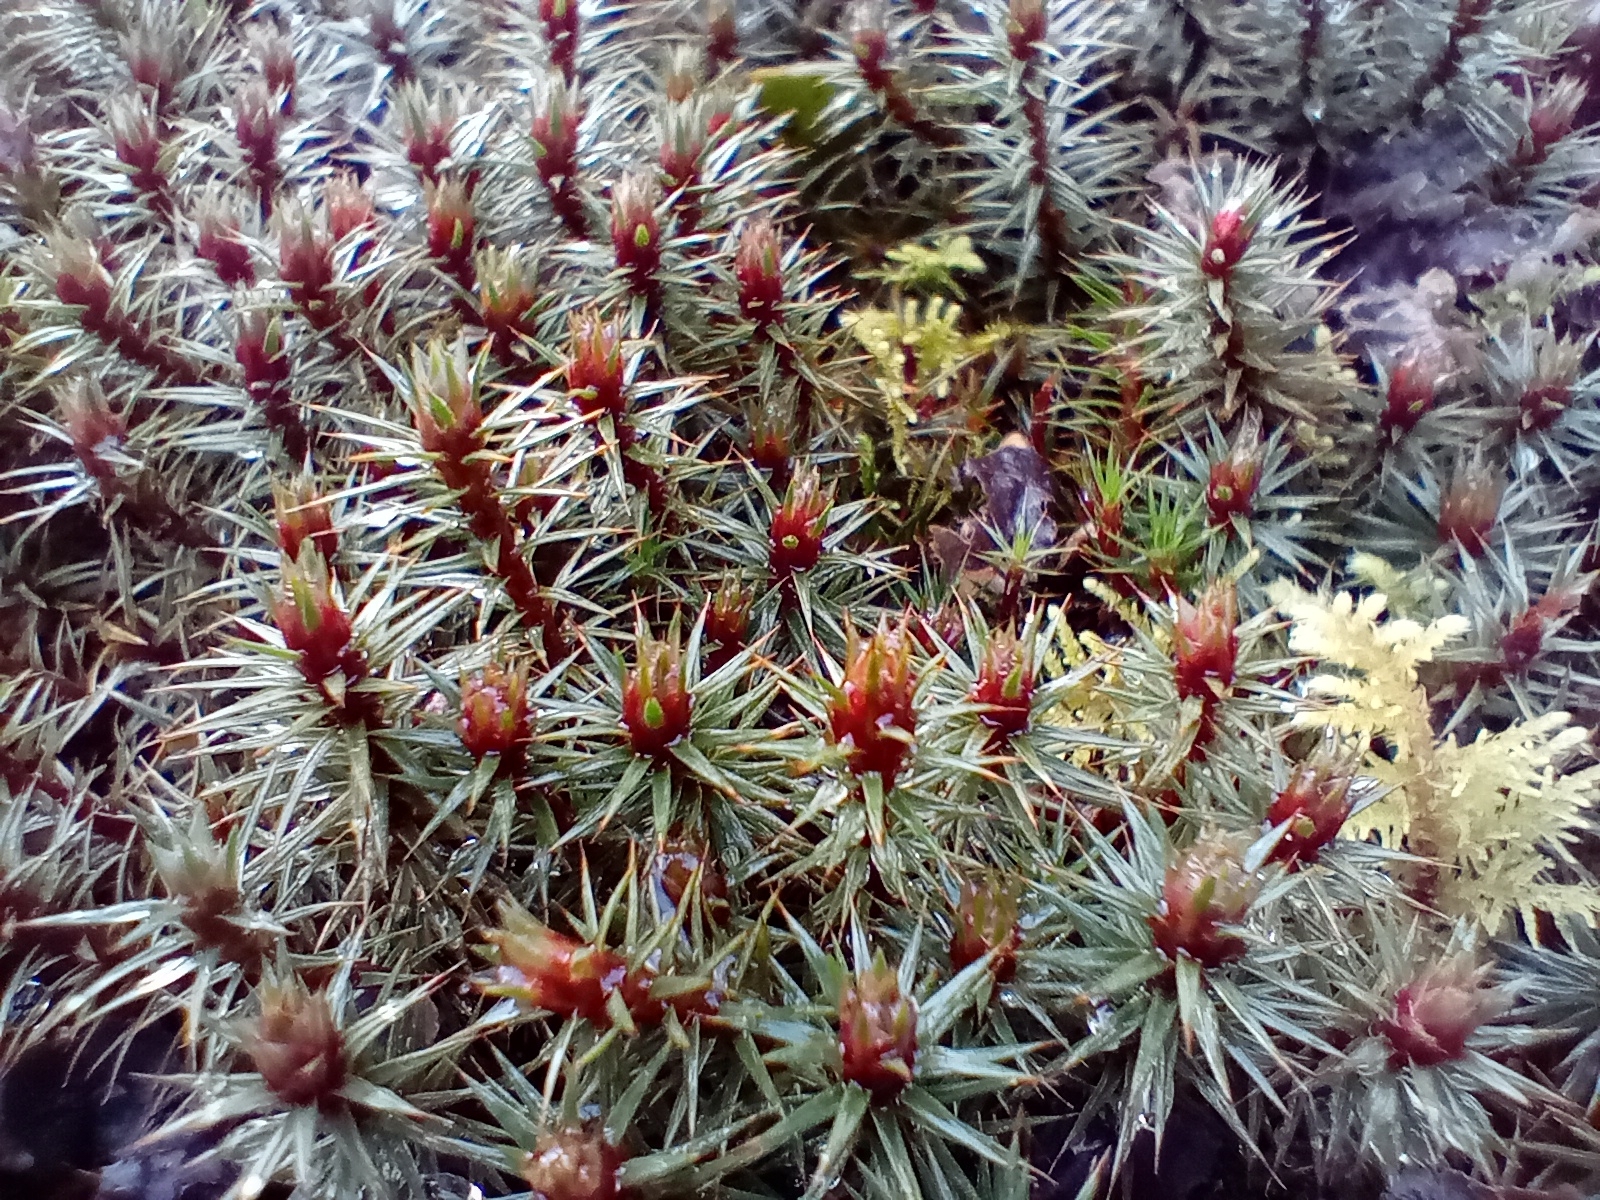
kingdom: Plantae
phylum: Bryophyta
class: Polytrichopsida
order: Polytrichales
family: Polytrichaceae
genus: Polytrichum
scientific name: Polytrichum juniperinum
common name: Juniper haircap moss
